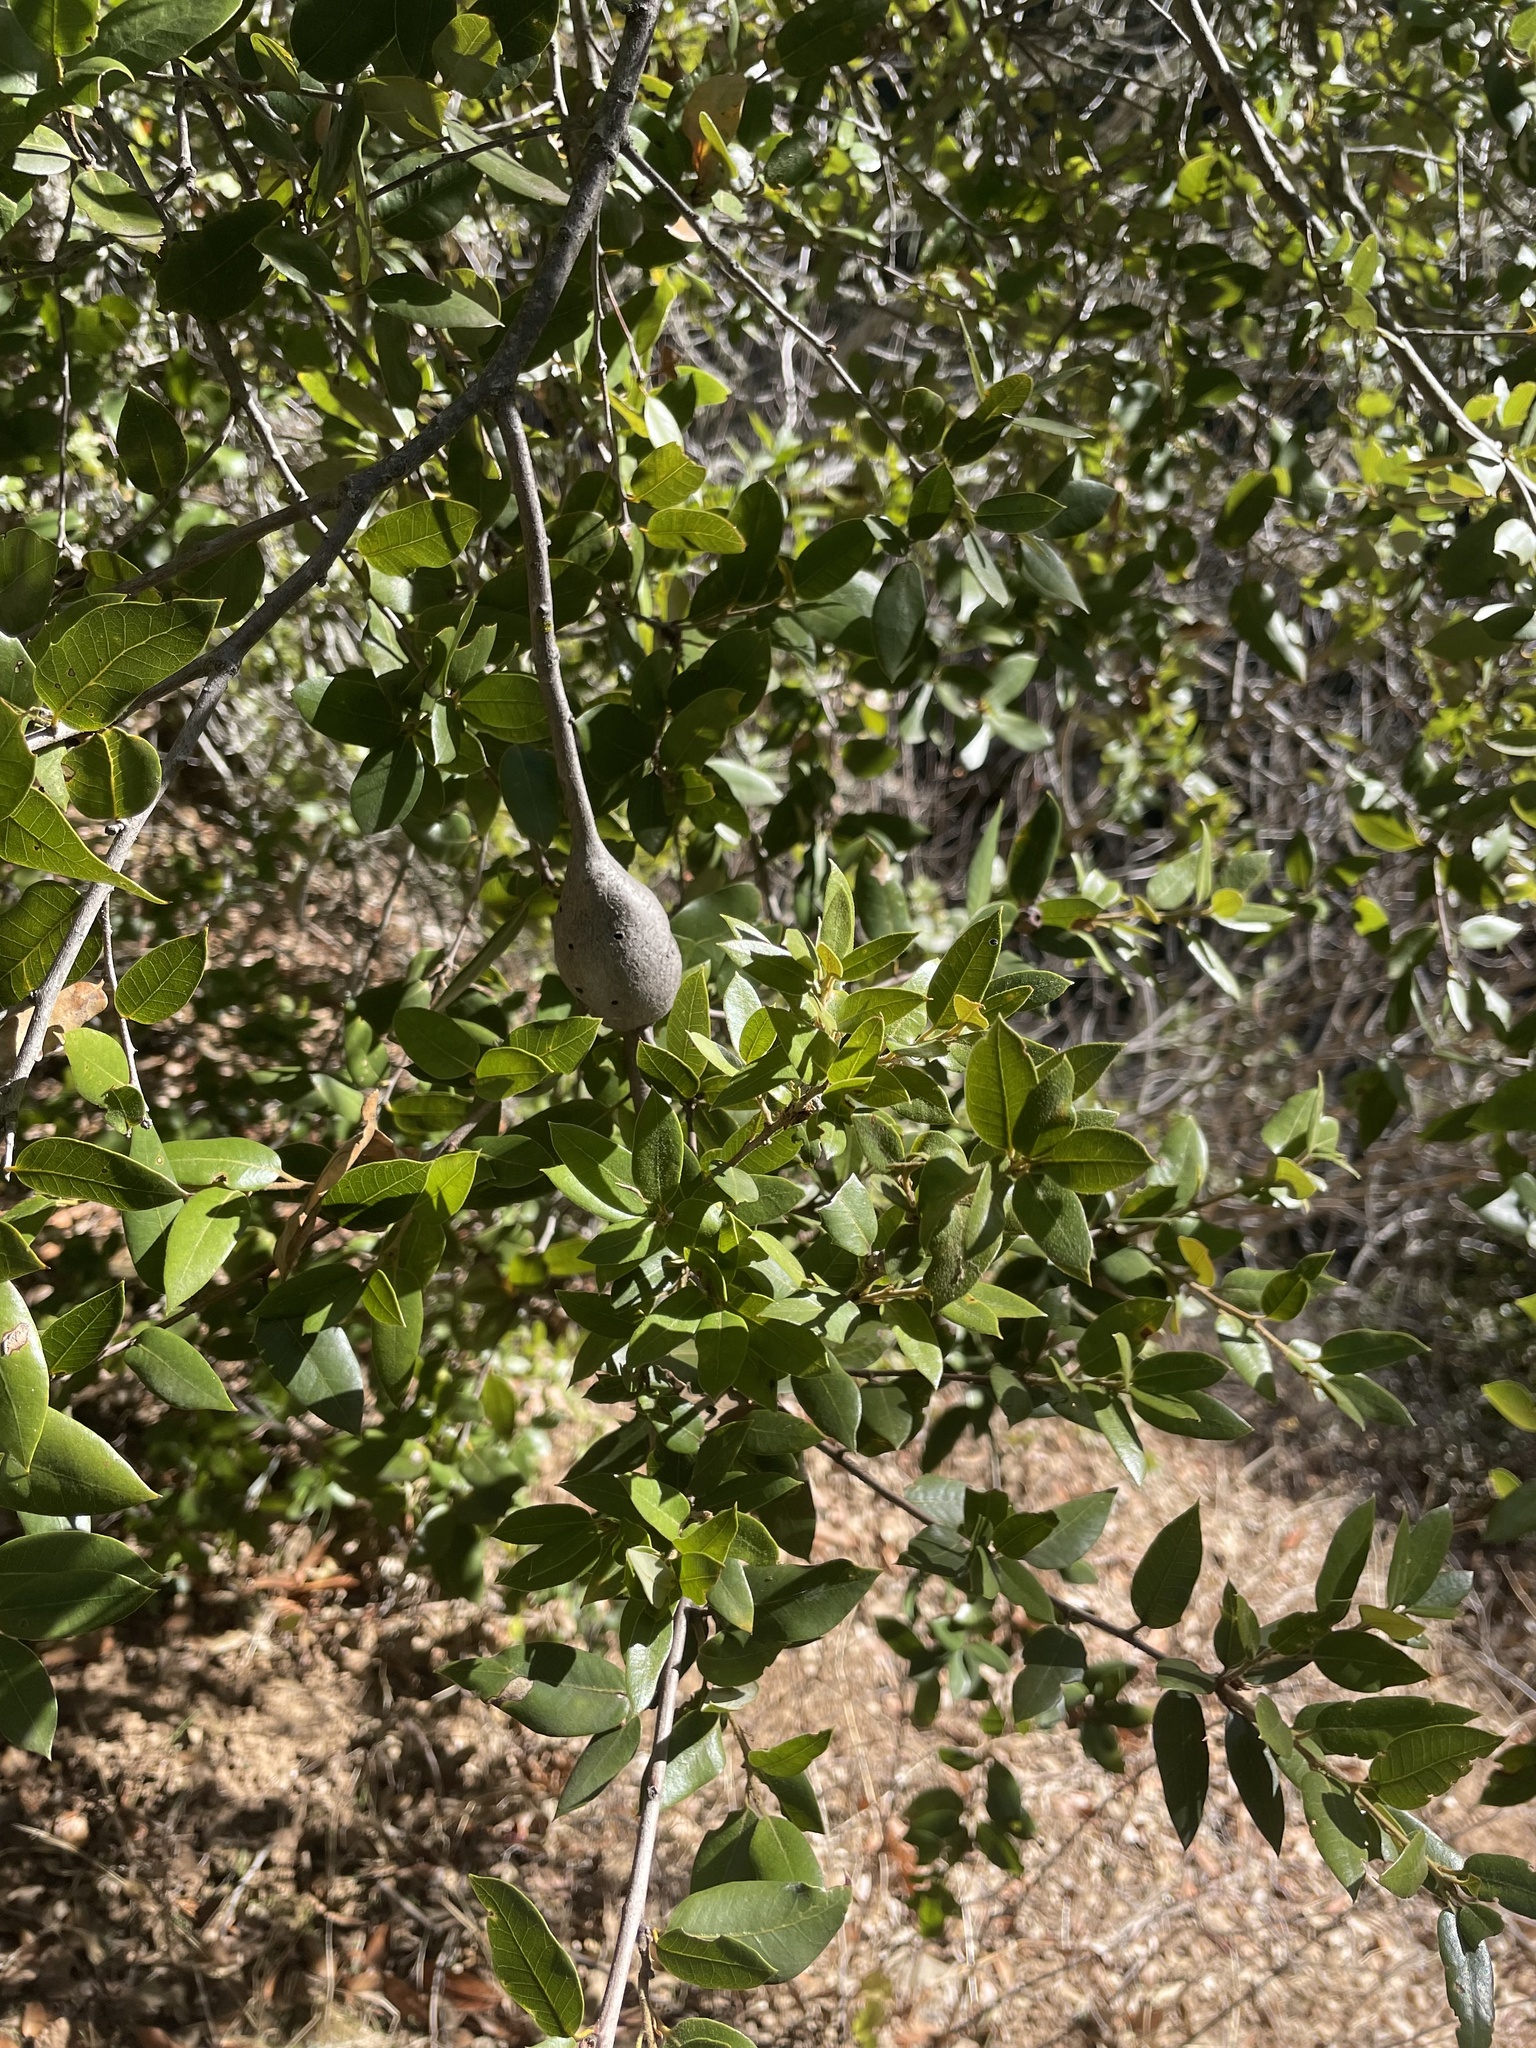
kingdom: Plantae
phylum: Tracheophyta
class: Magnoliopsida
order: Fagales
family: Fagaceae
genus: Quercus
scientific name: Quercus chrysolepis
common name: Canyon live oak
